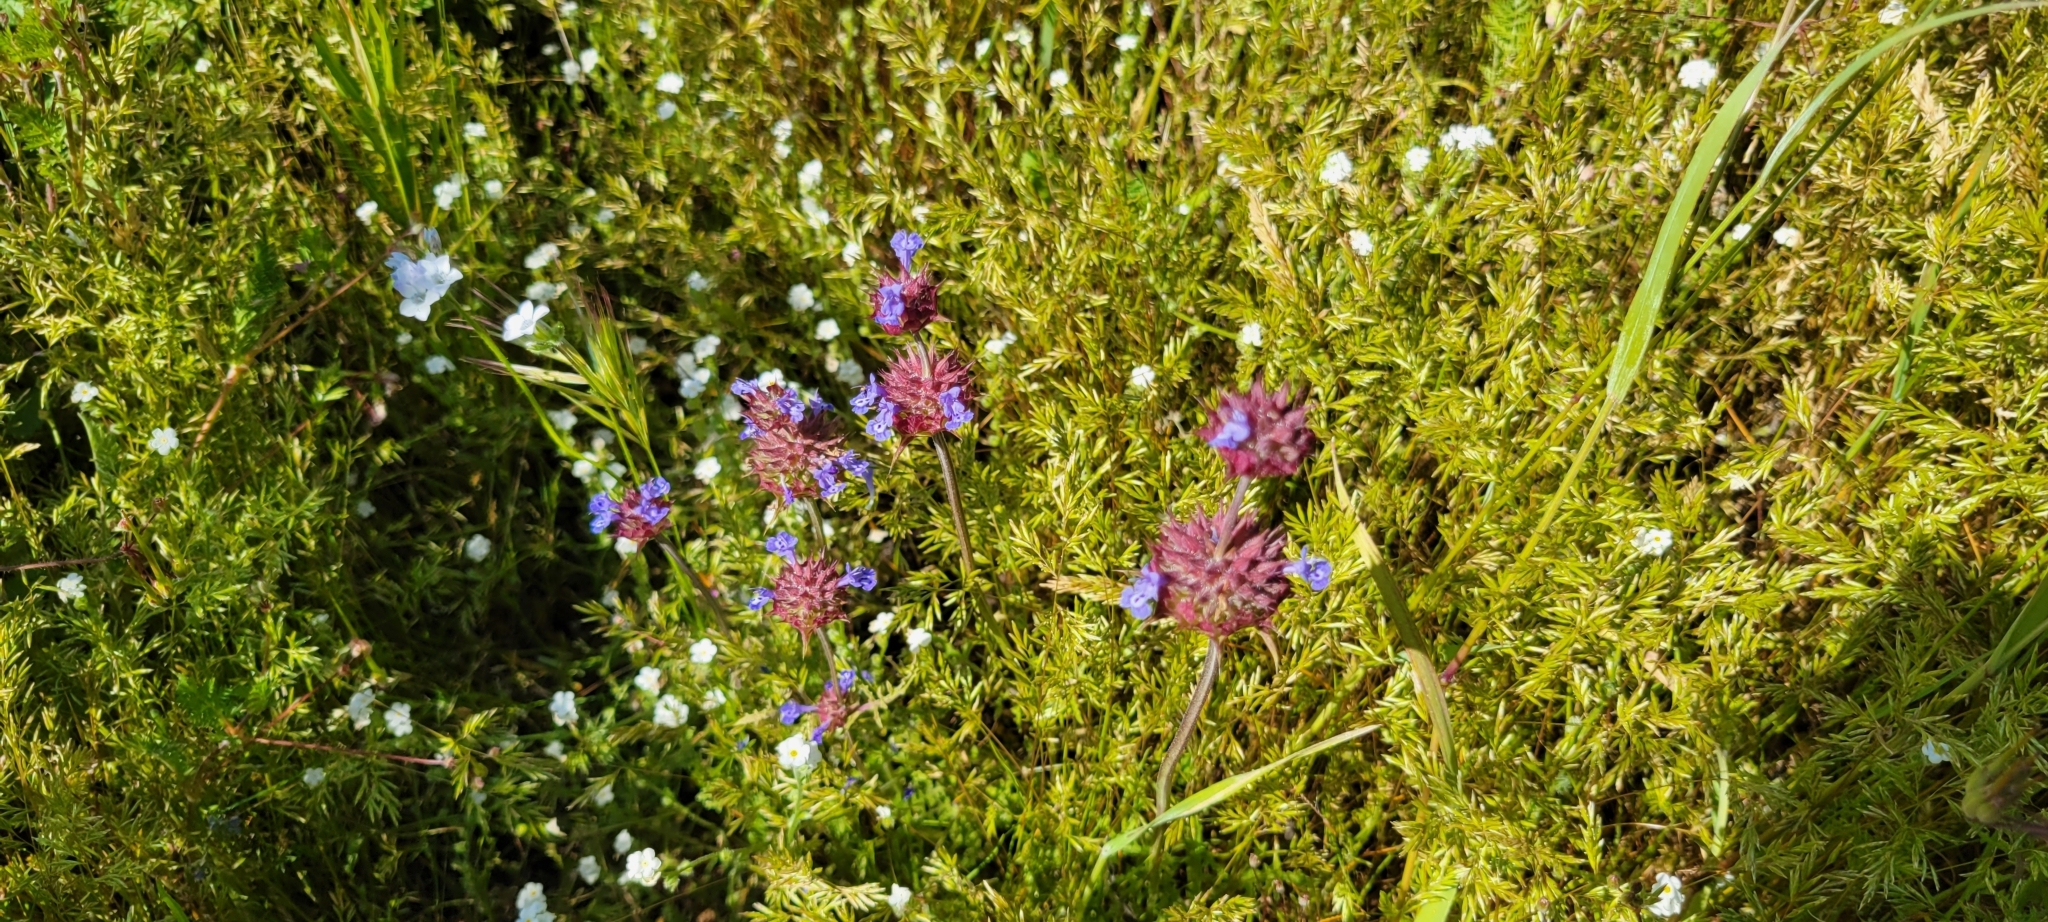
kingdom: Plantae
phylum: Tracheophyta
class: Magnoliopsida
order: Lamiales
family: Lamiaceae
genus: Salvia
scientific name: Salvia columbariae
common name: Chia
